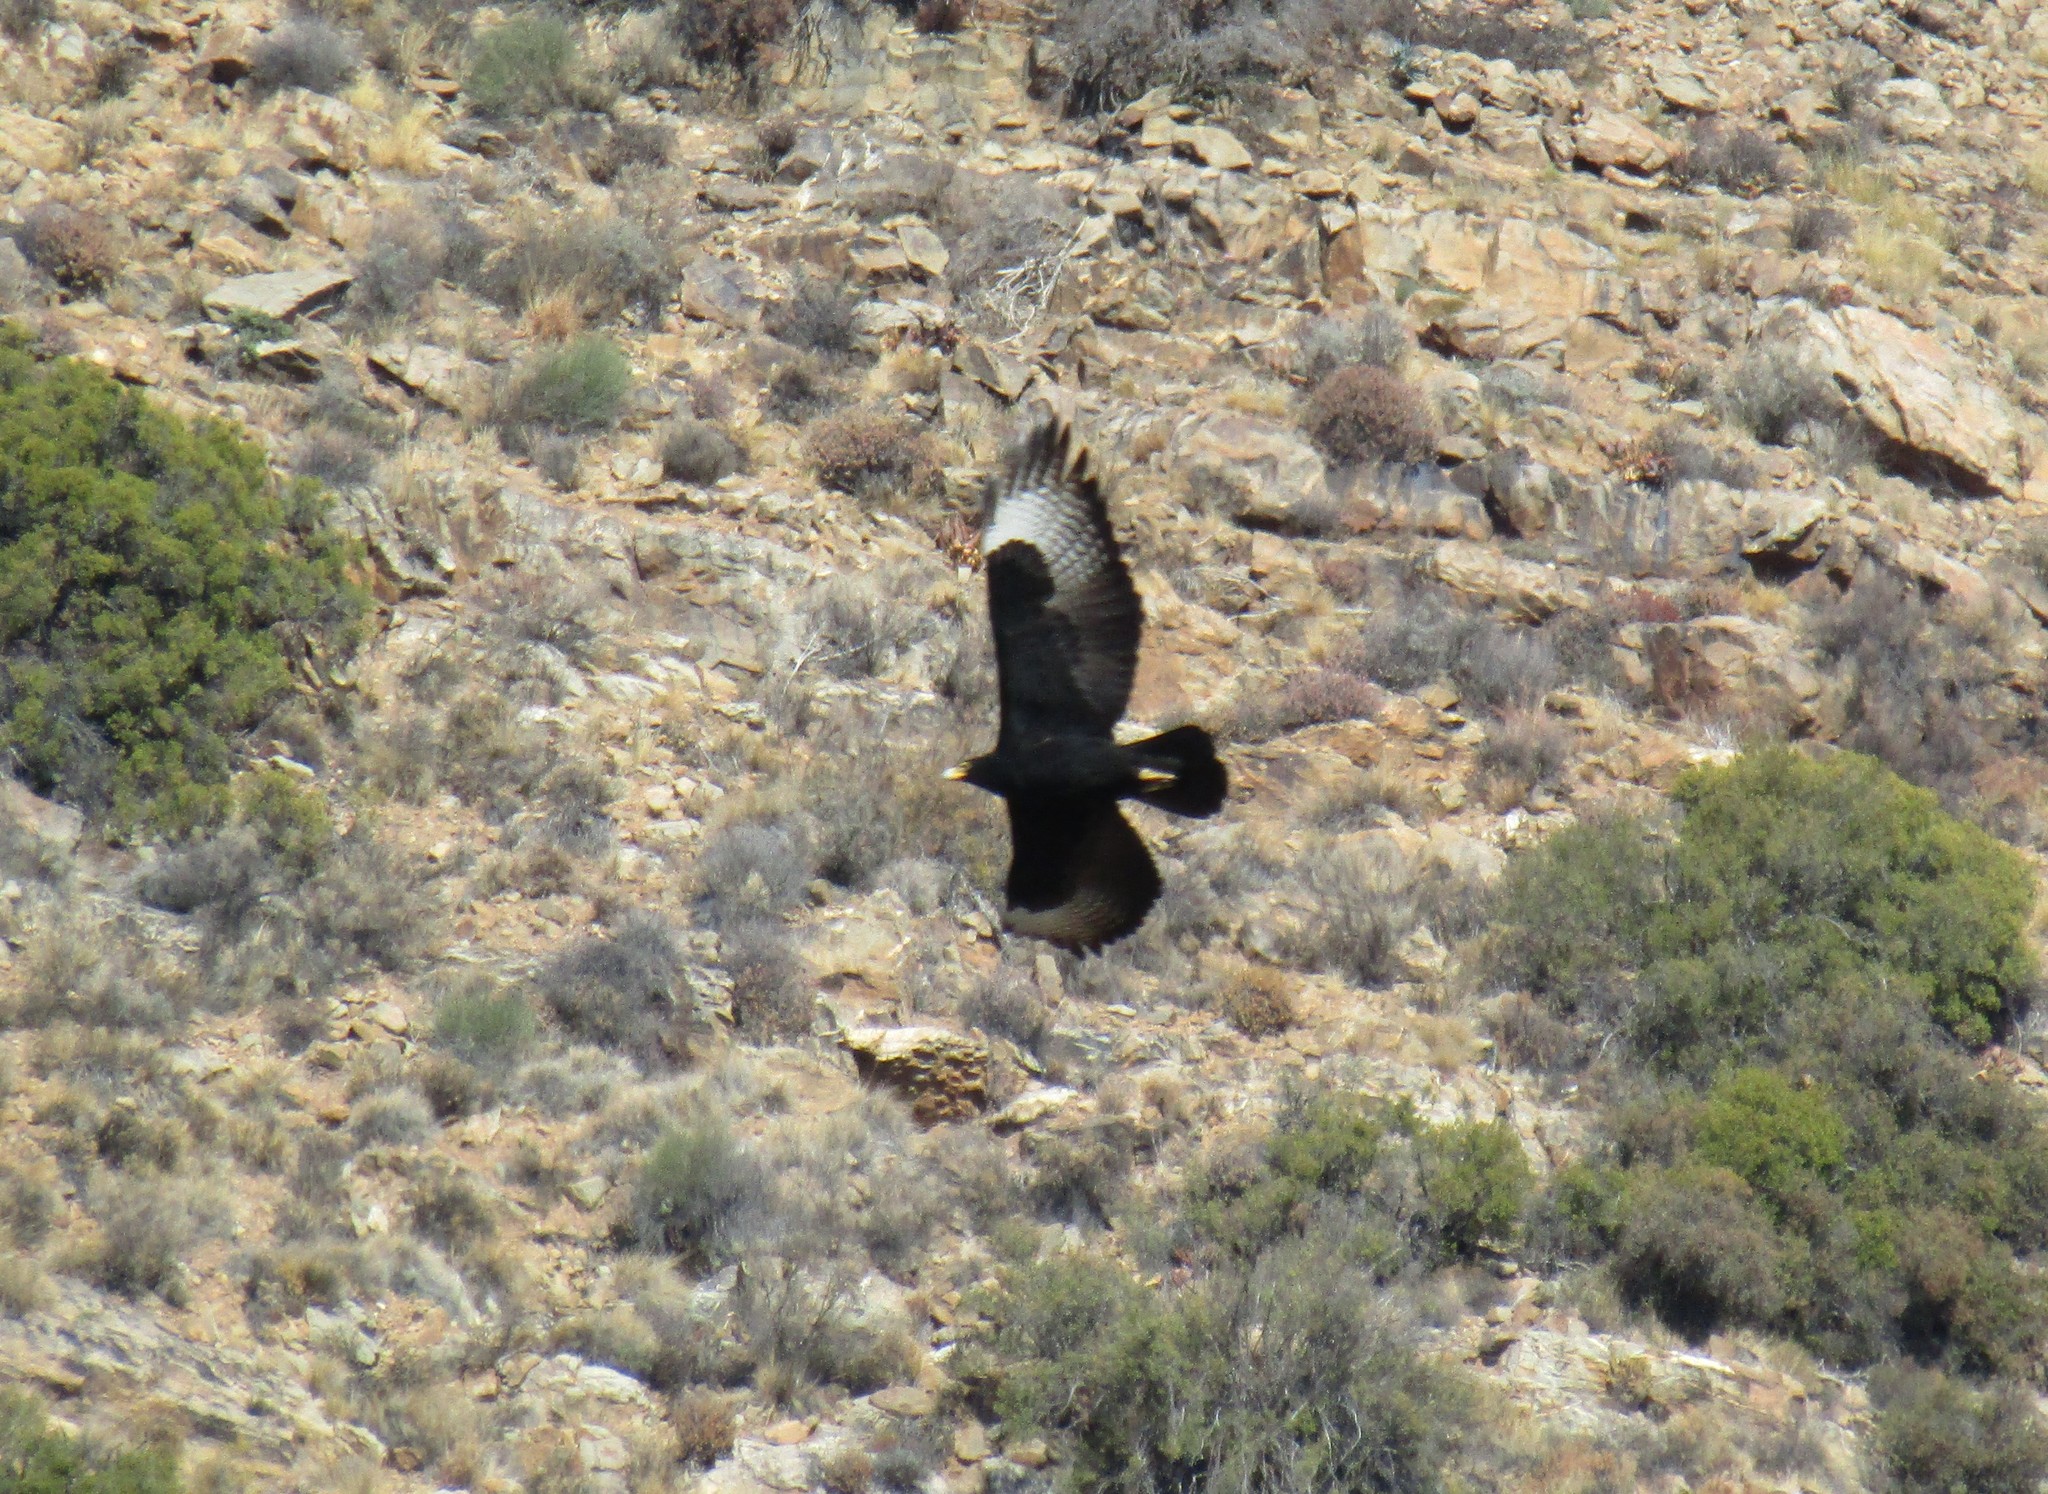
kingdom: Animalia
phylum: Chordata
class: Aves
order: Accipitriformes
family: Accipitridae
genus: Aquila
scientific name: Aquila verreauxii
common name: Verreaux's eagle
